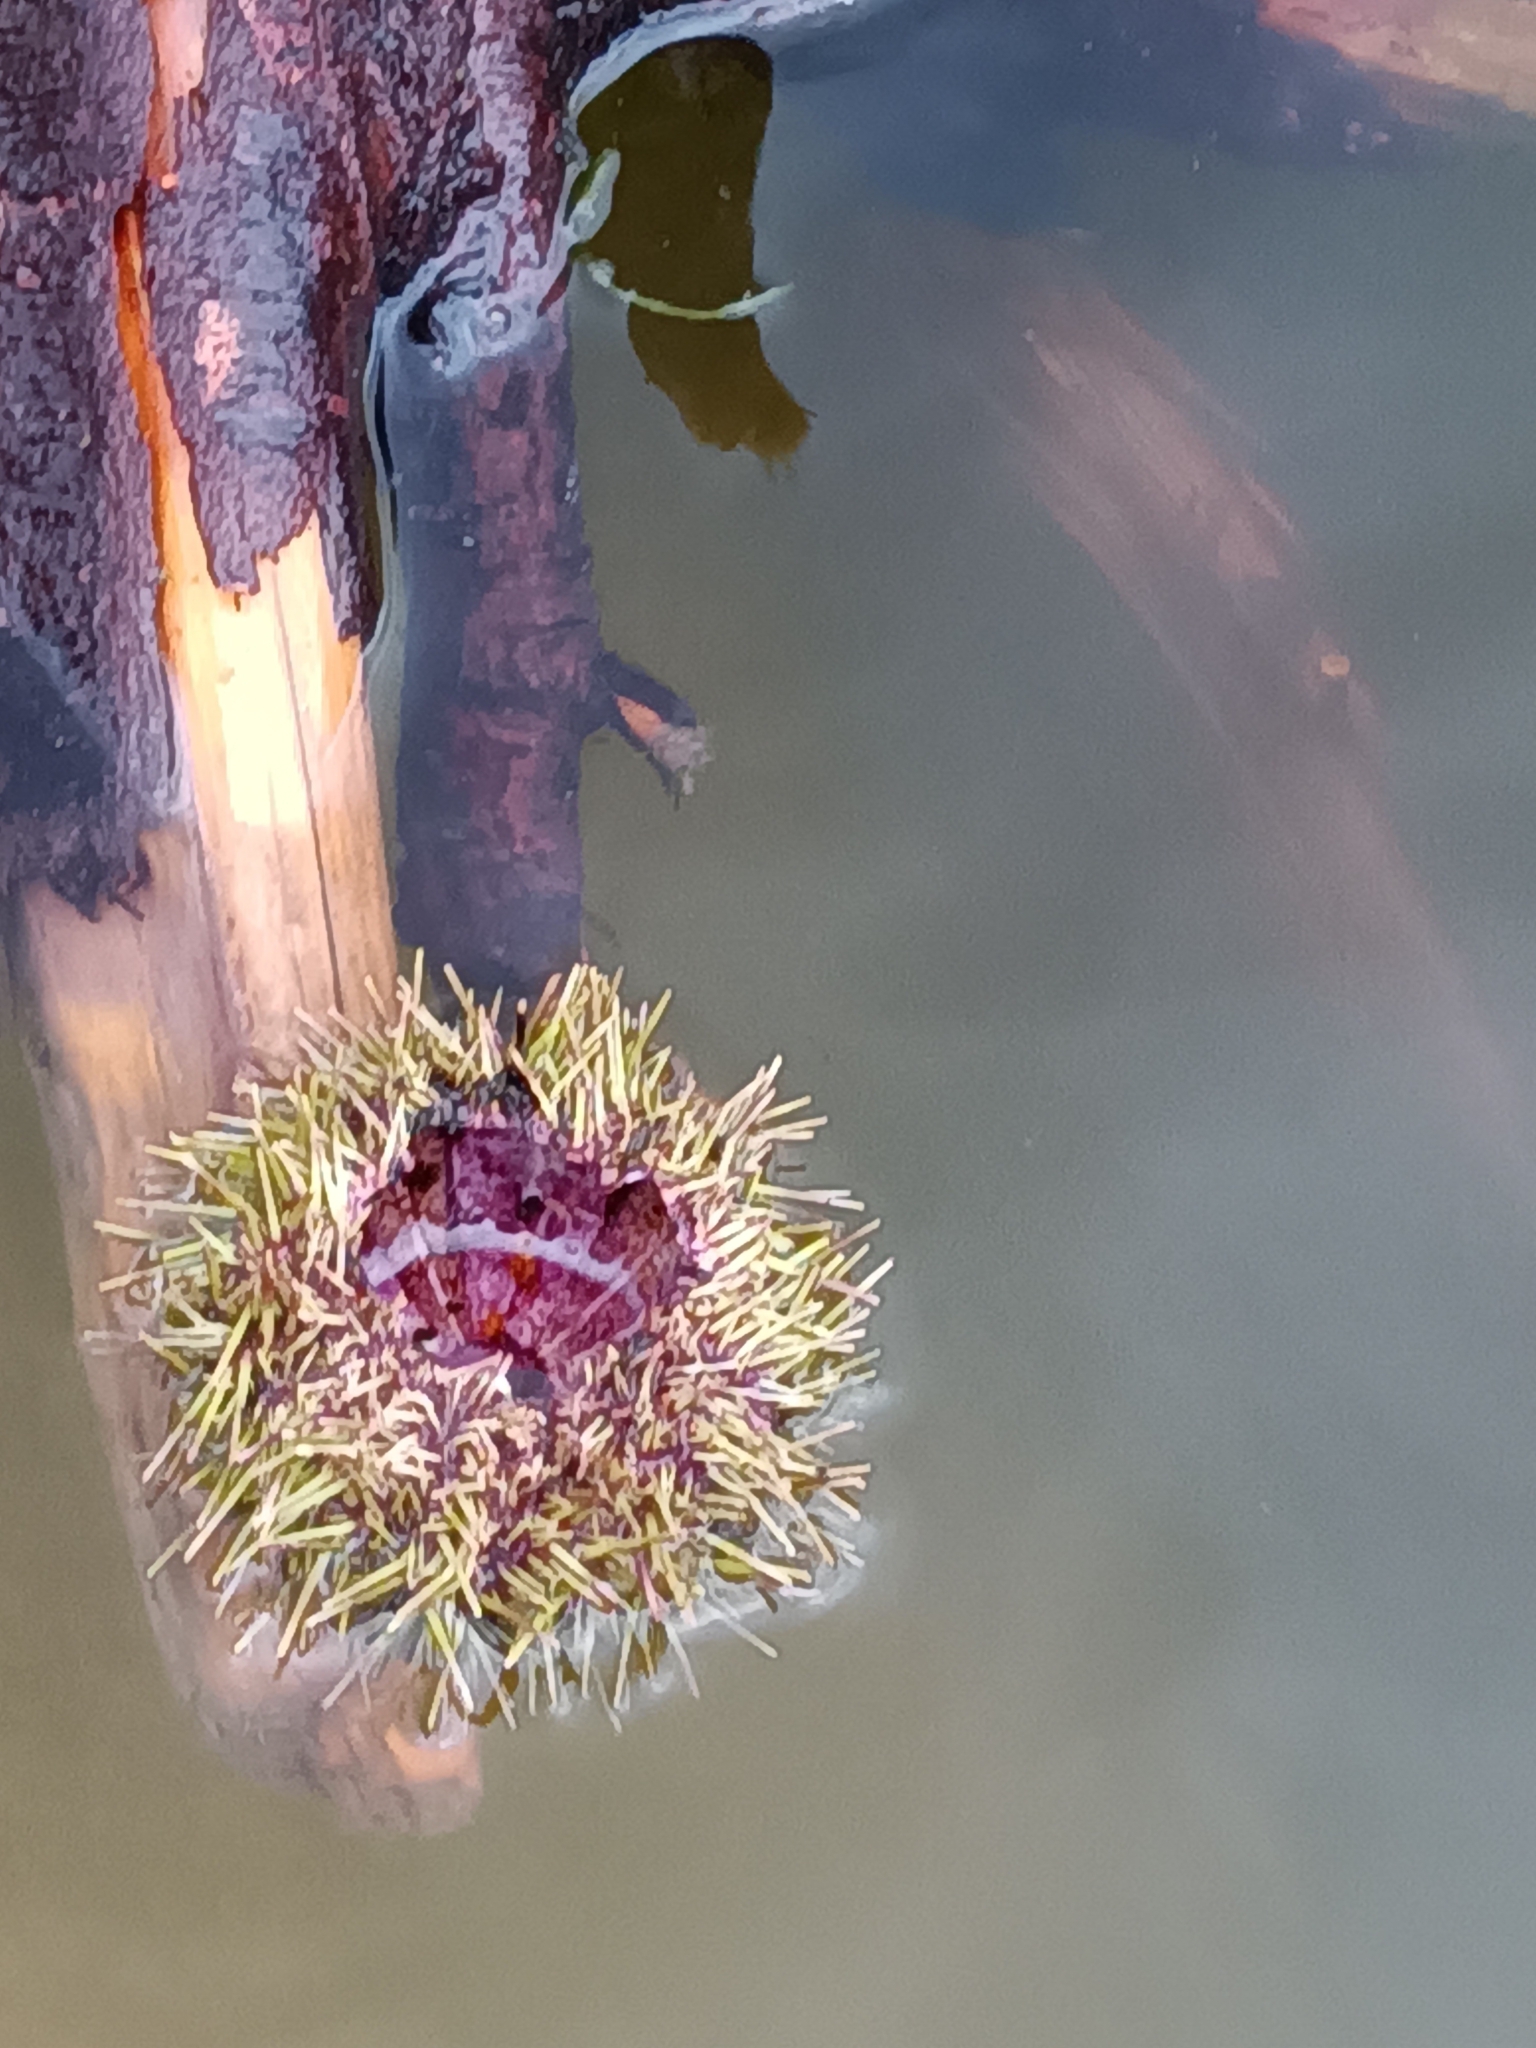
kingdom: Animalia
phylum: Echinodermata
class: Echinoidea
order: Camarodonta
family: Strongylocentrotidae
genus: Strongylocentrotus
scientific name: Strongylocentrotus droebachiensis
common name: Northern sea urchin
